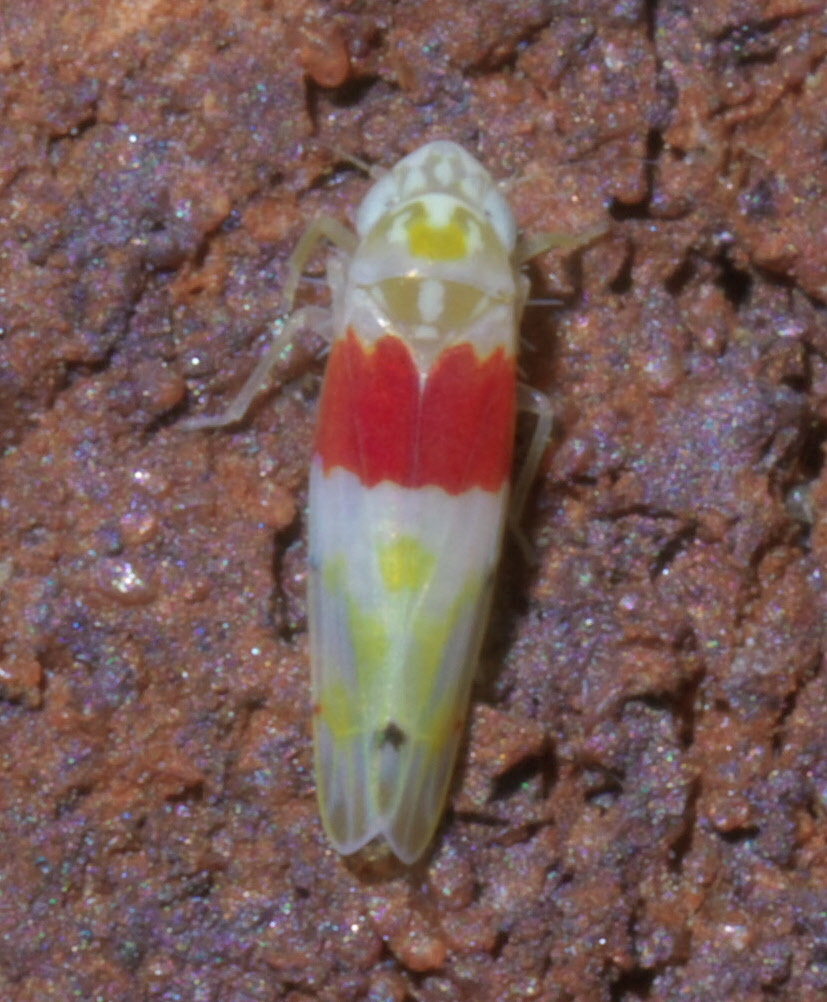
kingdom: Animalia
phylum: Arthropoda
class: Insecta
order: Hemiptera
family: Cicadellidae
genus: Eratoneura
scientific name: Eratoneura osborni
